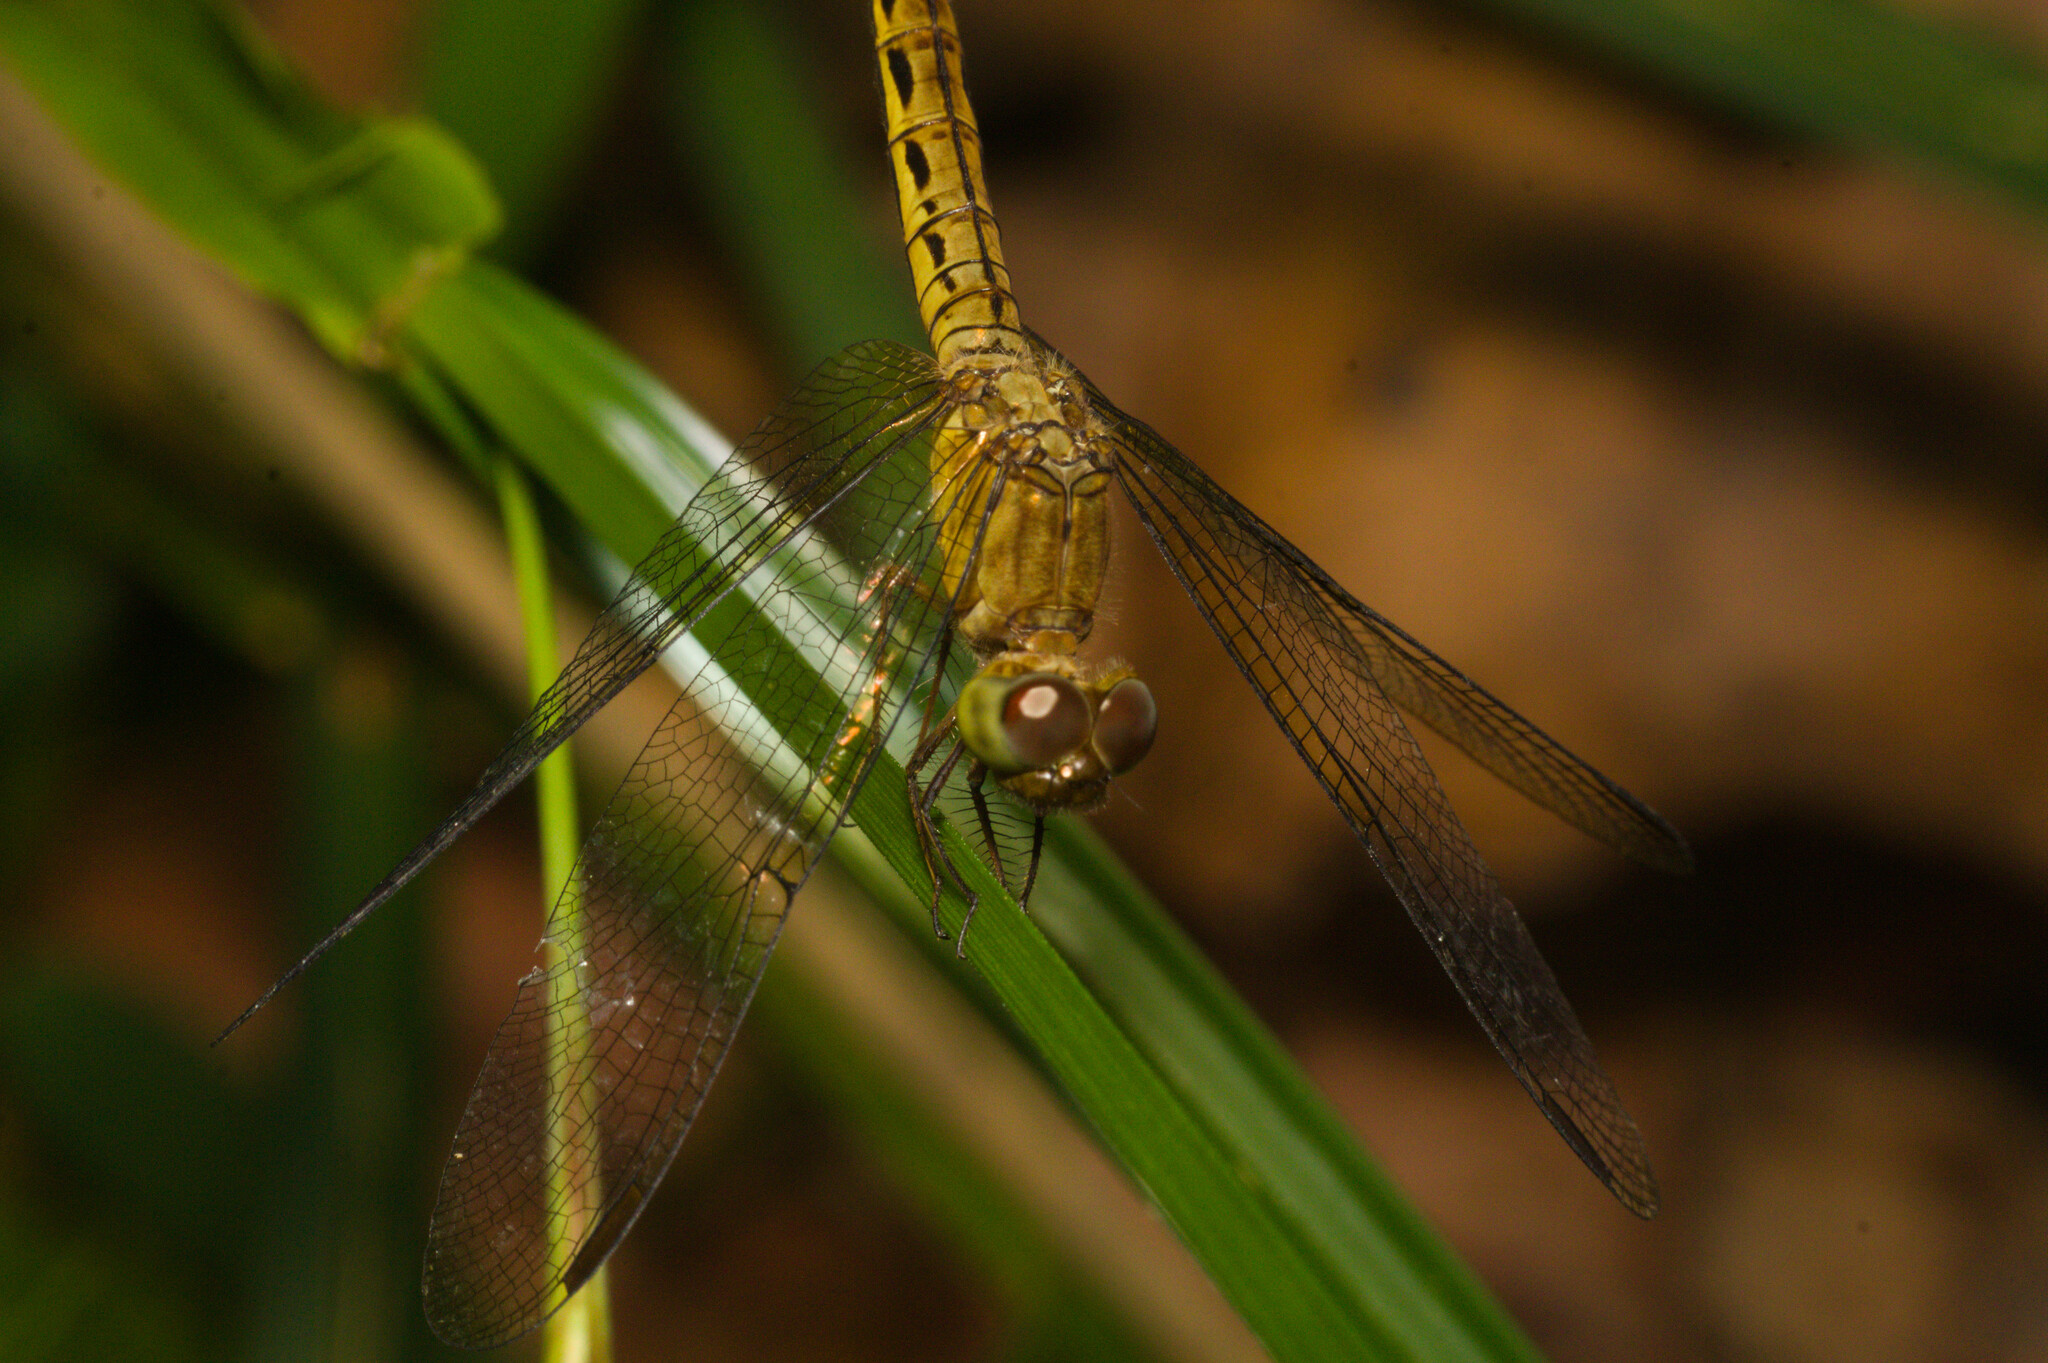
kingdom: Animalia
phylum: Arthropoda
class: Insecta
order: Odonata
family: Libellulidae
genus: Neurothemis
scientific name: Neurothemis fluctuans
